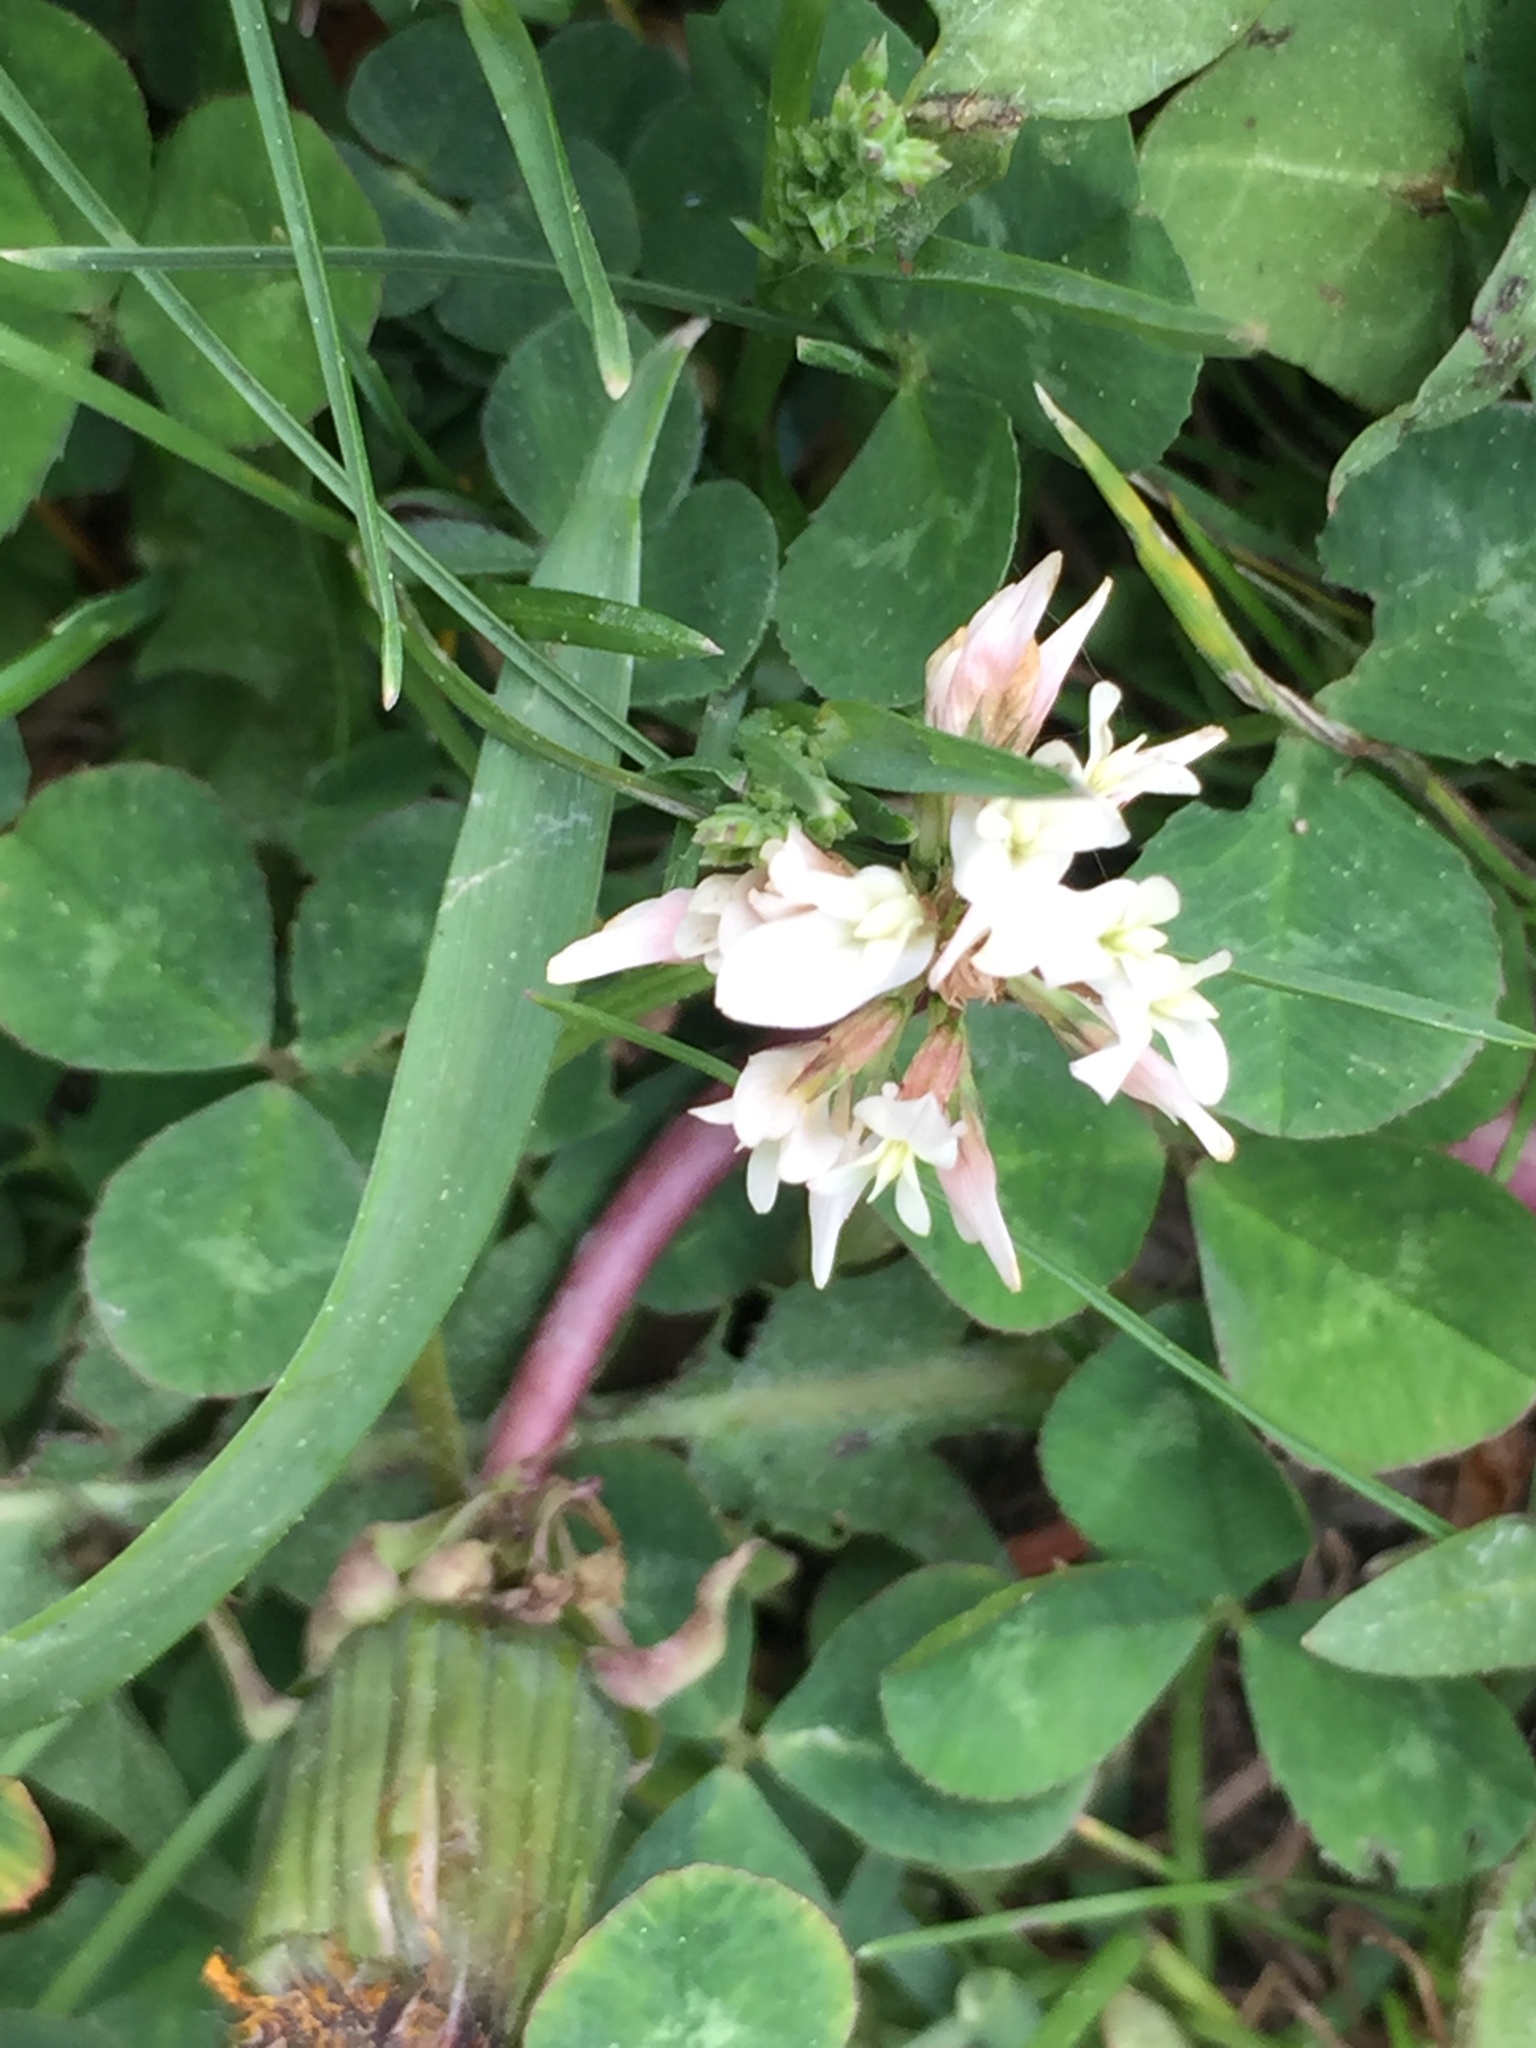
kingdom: Plantae
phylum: Tracheophyta
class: Magnoliopsida
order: Fabales
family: Fabaceae
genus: Trifolium
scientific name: Trifolium repens
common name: White clover
